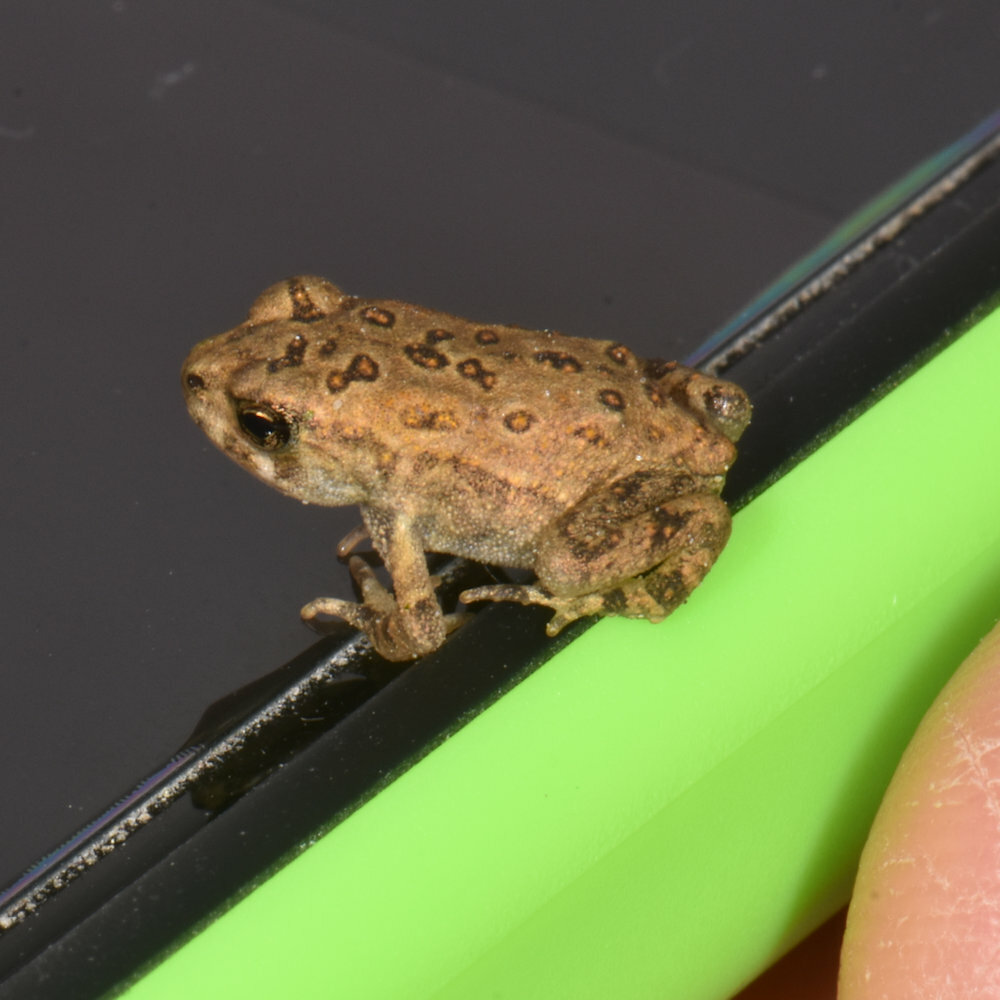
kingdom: Animalia
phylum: Chordata
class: Amphibia
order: Anura
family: Bufonidae
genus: Anaxyrus
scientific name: Anaxyrus americanus
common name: American toad
